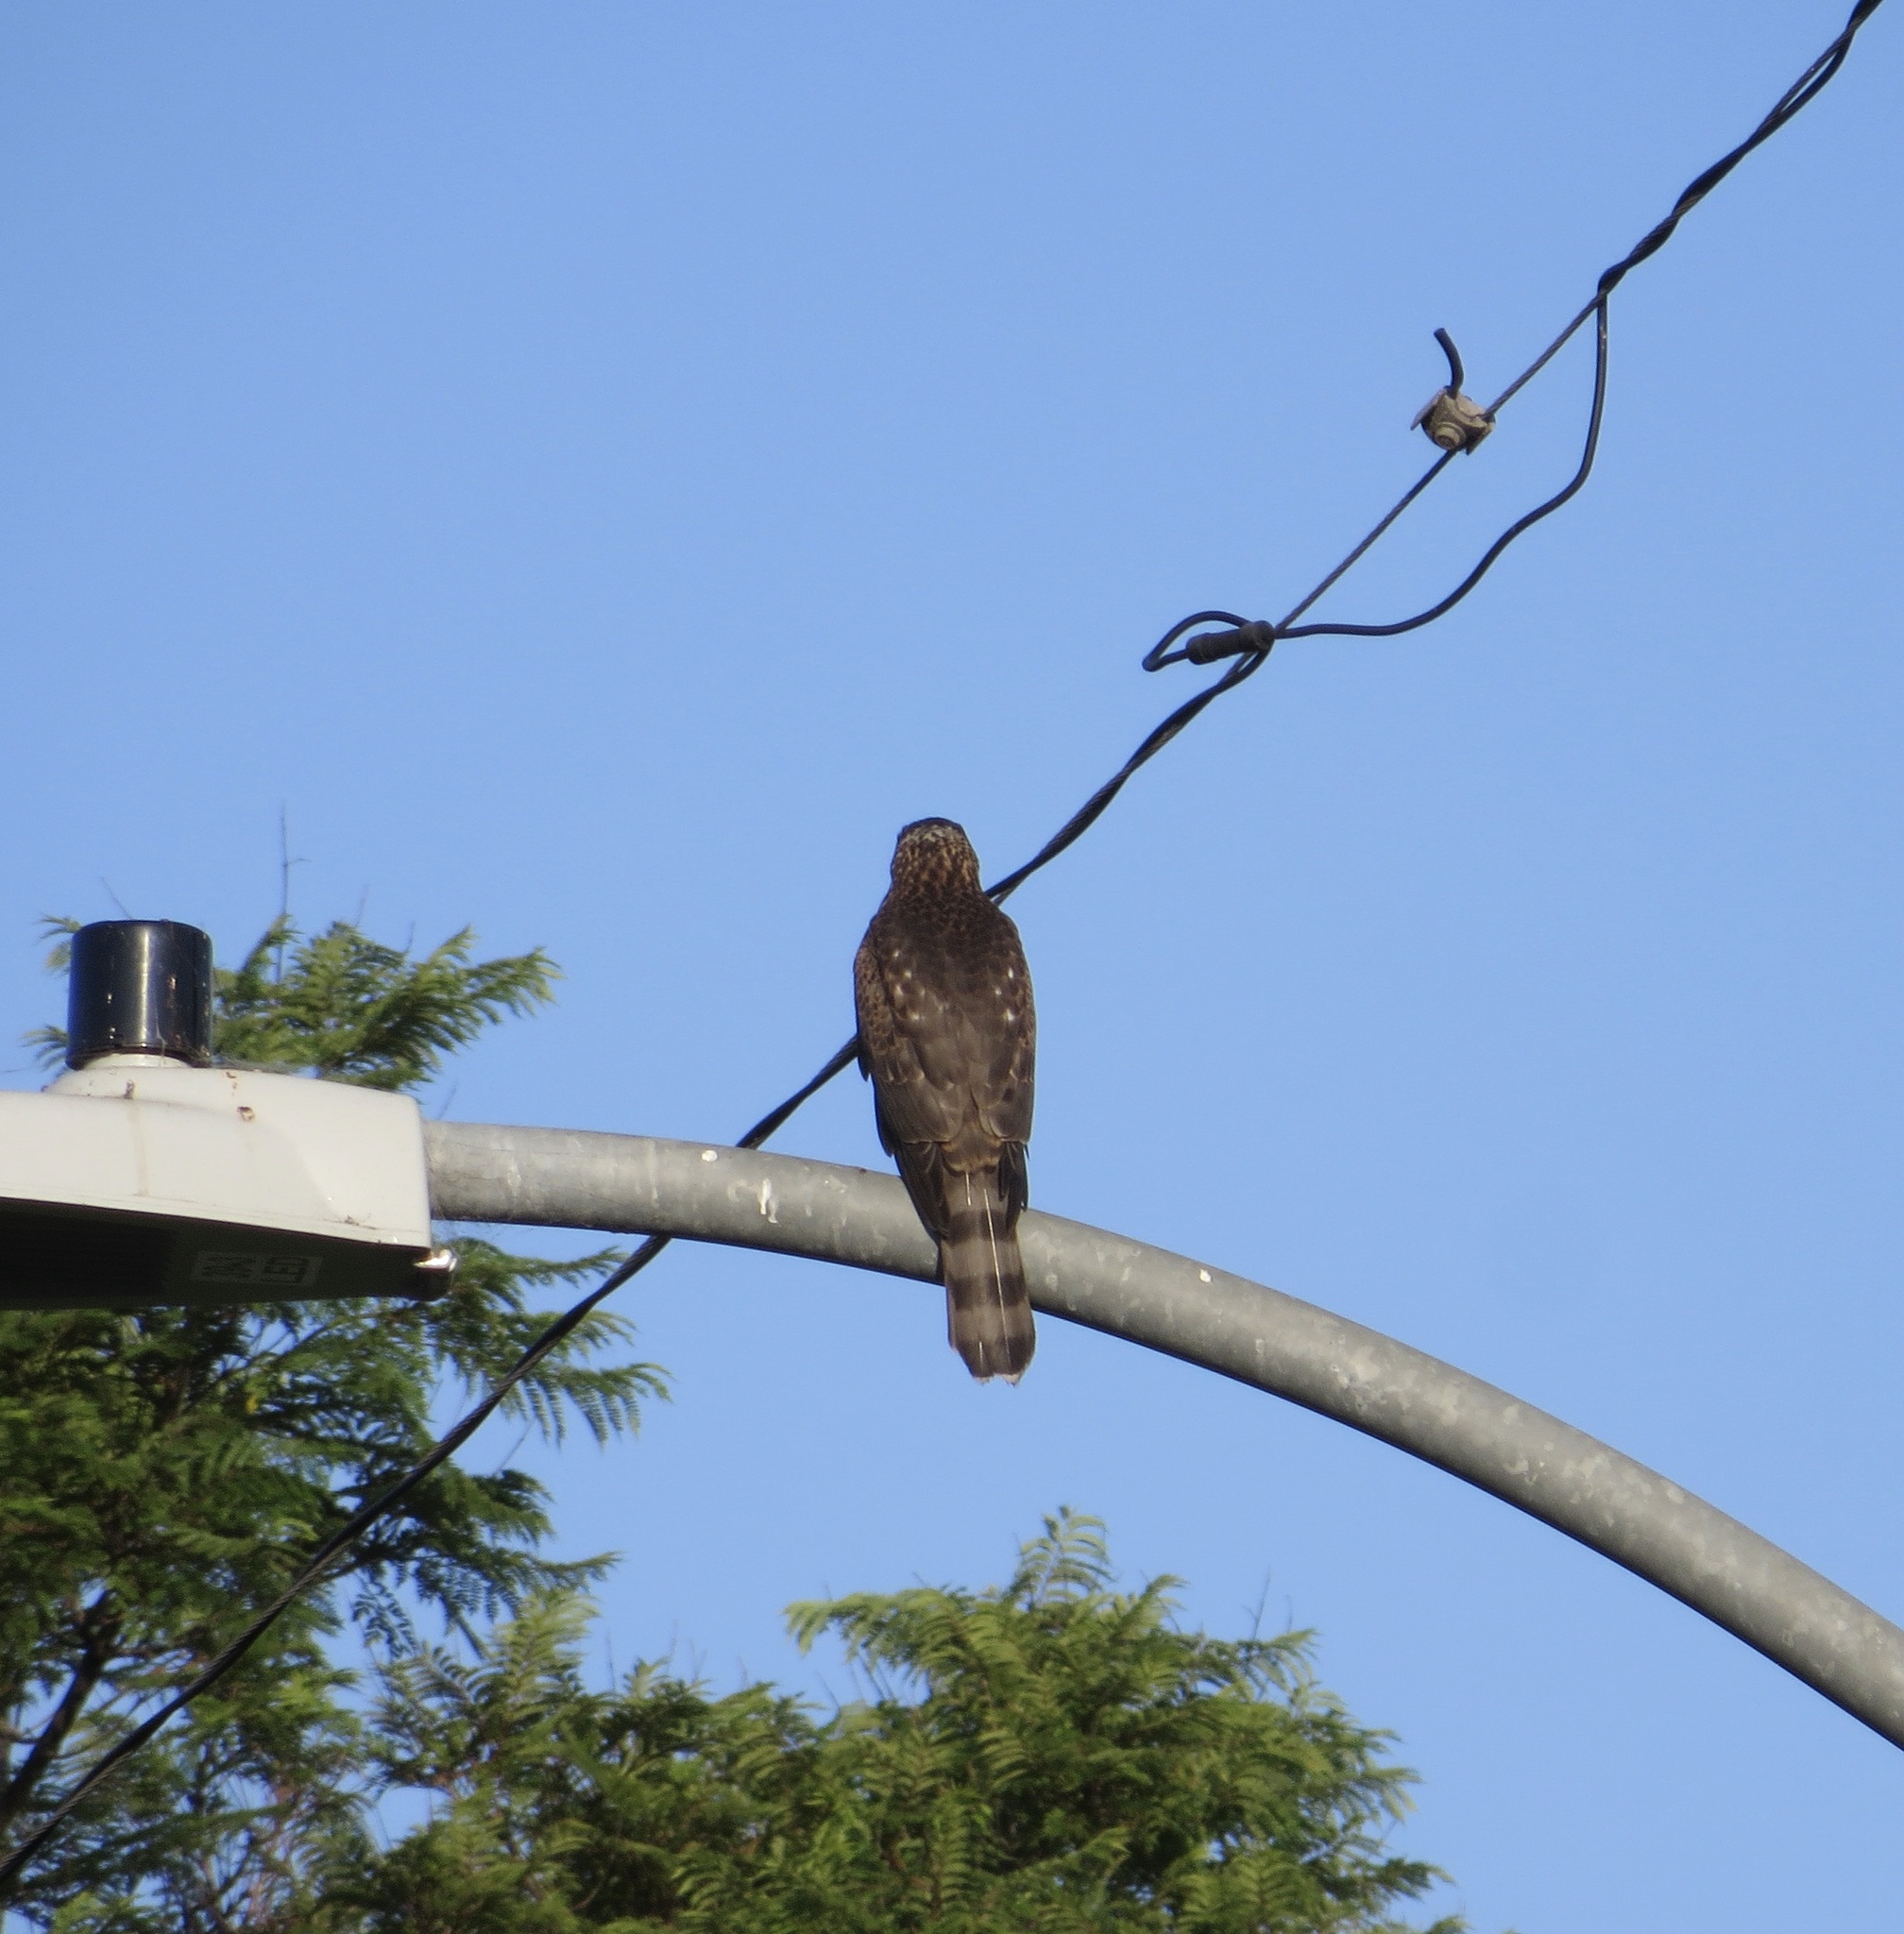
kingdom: Animalia
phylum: Chordata
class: Aves
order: Accipitriformes
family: Accipitridae
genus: Accipiter
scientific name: Accipiter cooperii
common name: Cooper's hawk
